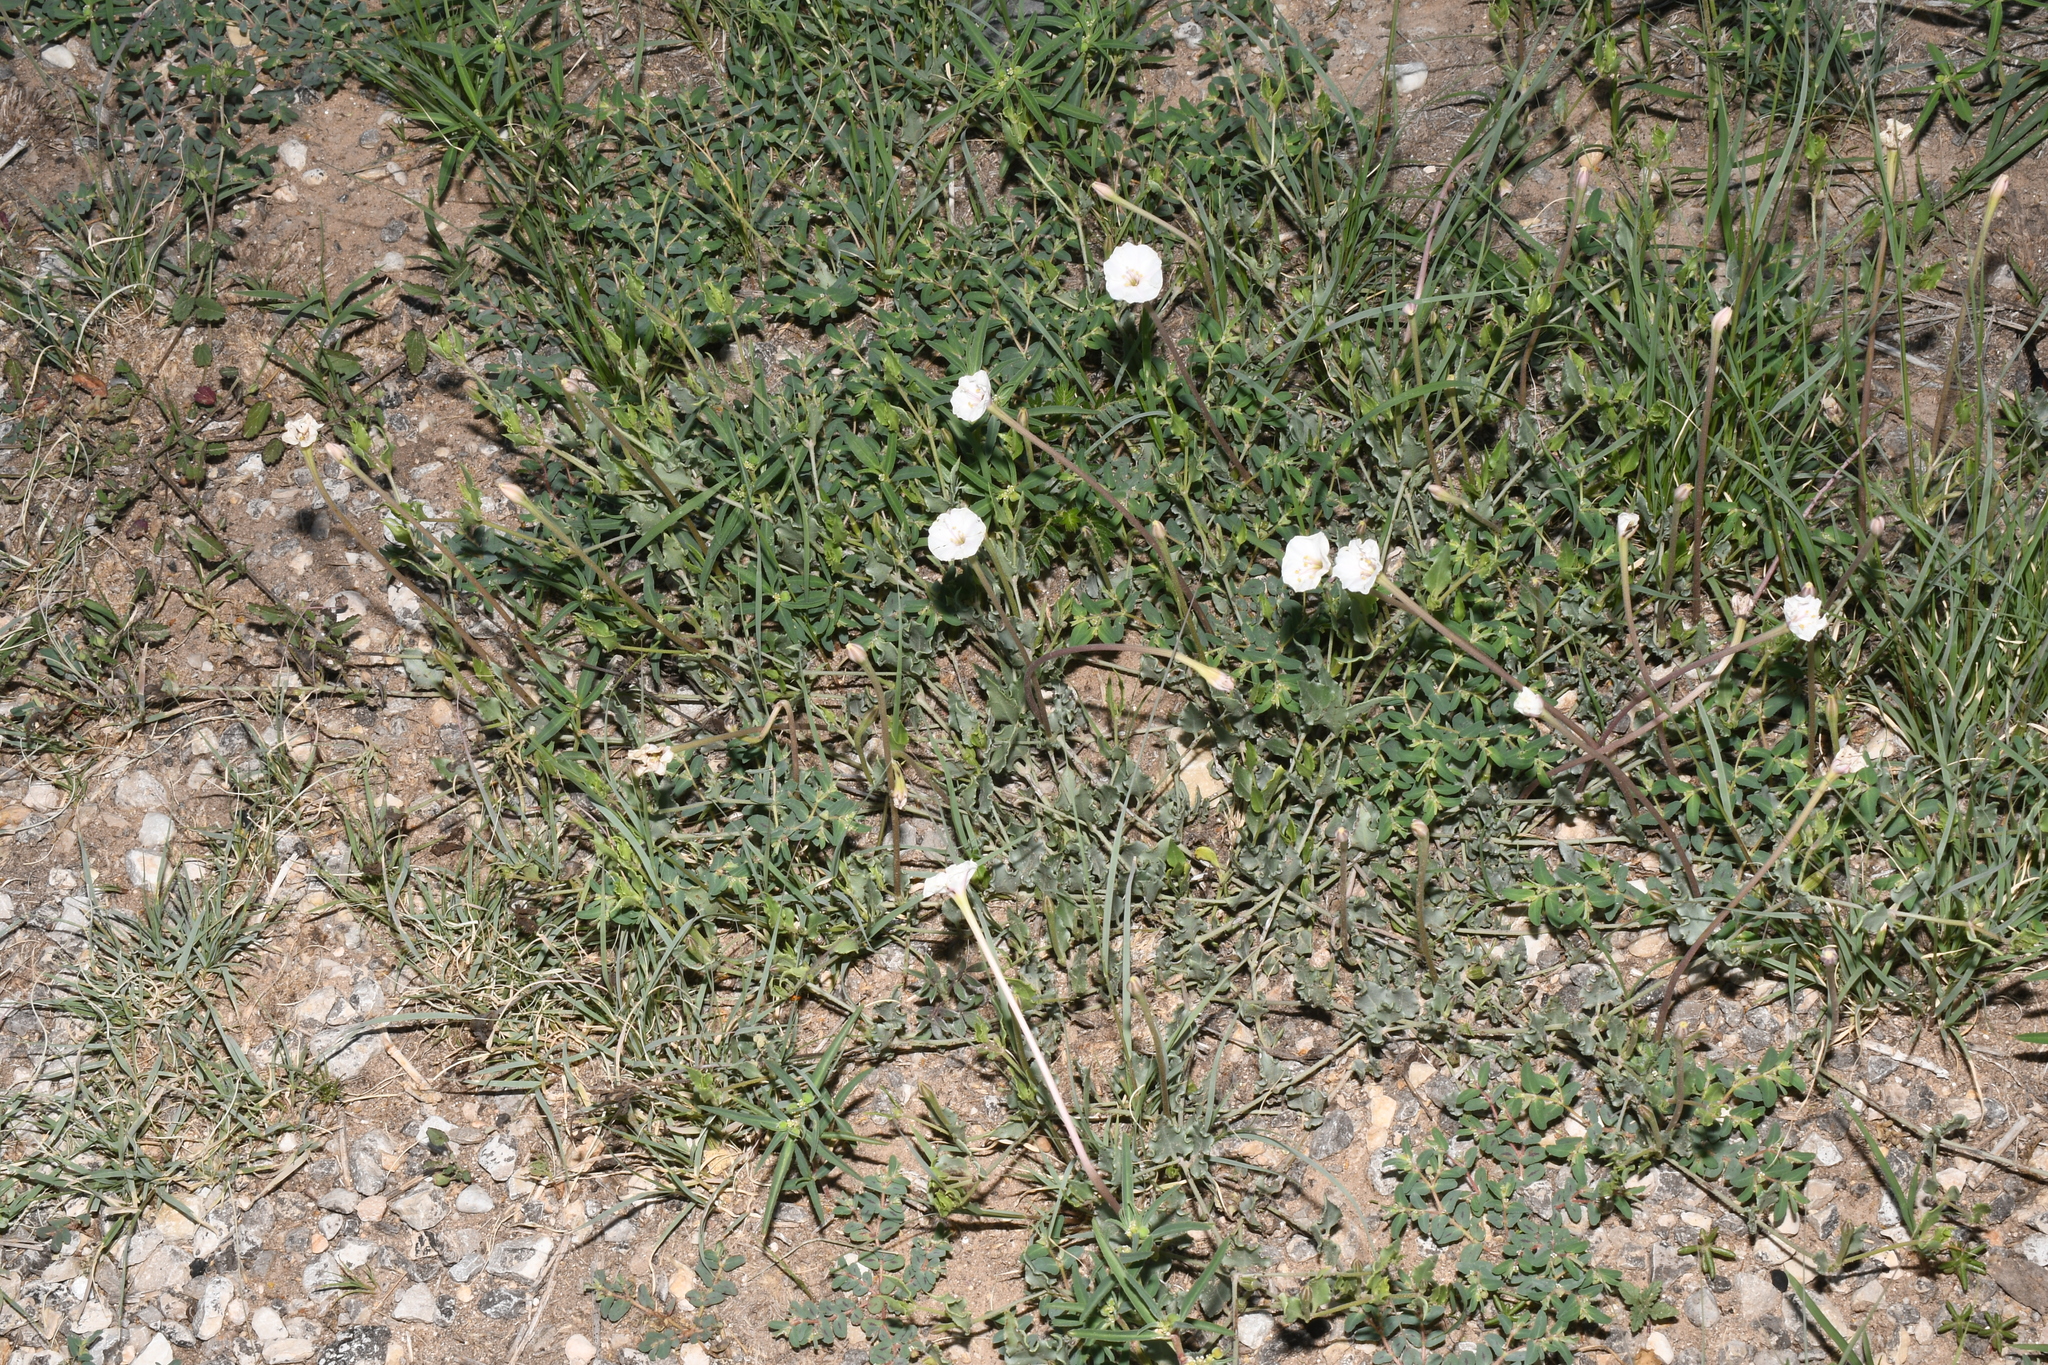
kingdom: Plantae
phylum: Tracheophyta
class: Magnoliopsida
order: Caryophyllales
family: Nyctaginaceae
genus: Acleisanthes
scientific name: Acleisanthes longiflora
